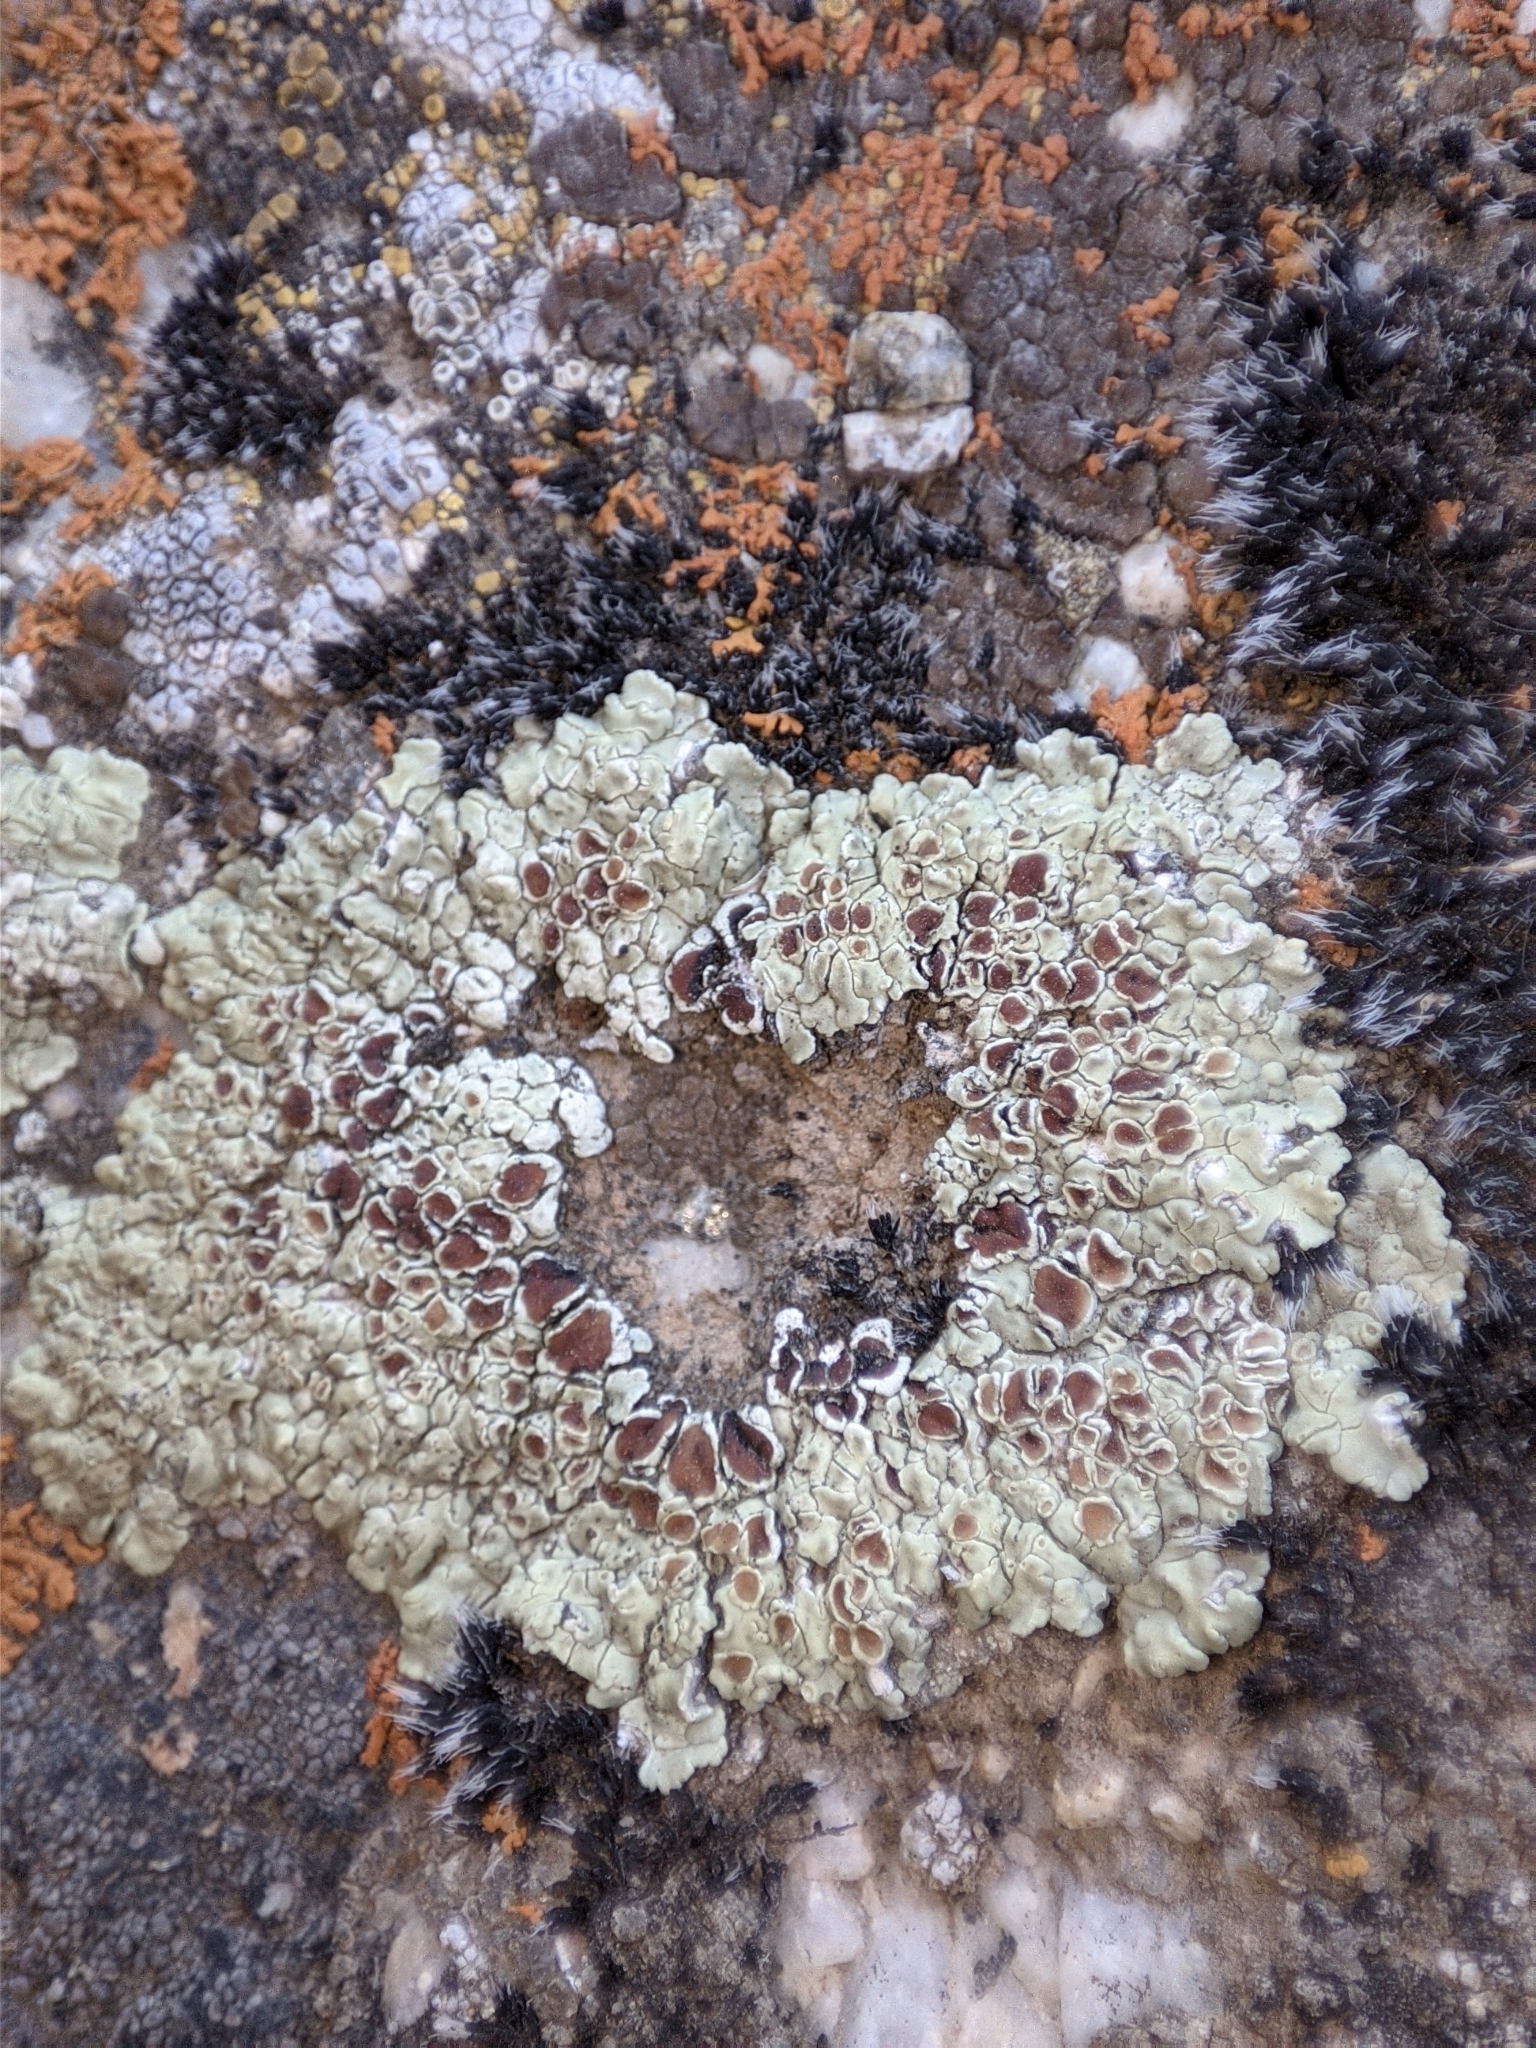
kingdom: Fungi
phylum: Ascomycota
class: Lecanoromycetes
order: Lecanorales
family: Lecanoraceae
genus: Protoparmeliopsis
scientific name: Protoparmeliopsis muralis
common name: Stonewall rim lichen
